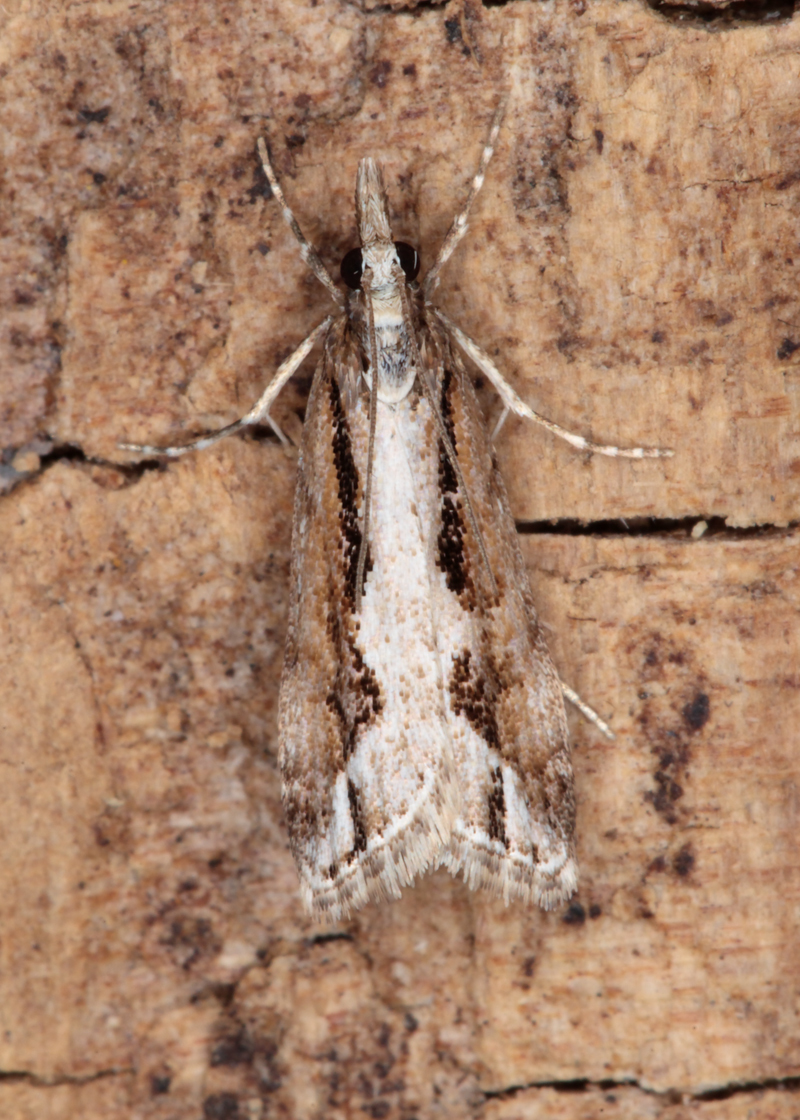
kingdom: Animalia
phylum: Arthropoda
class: Insecta
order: Lepidoptera
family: Crambidae
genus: Eudonia
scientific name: Eudonia steropaea
